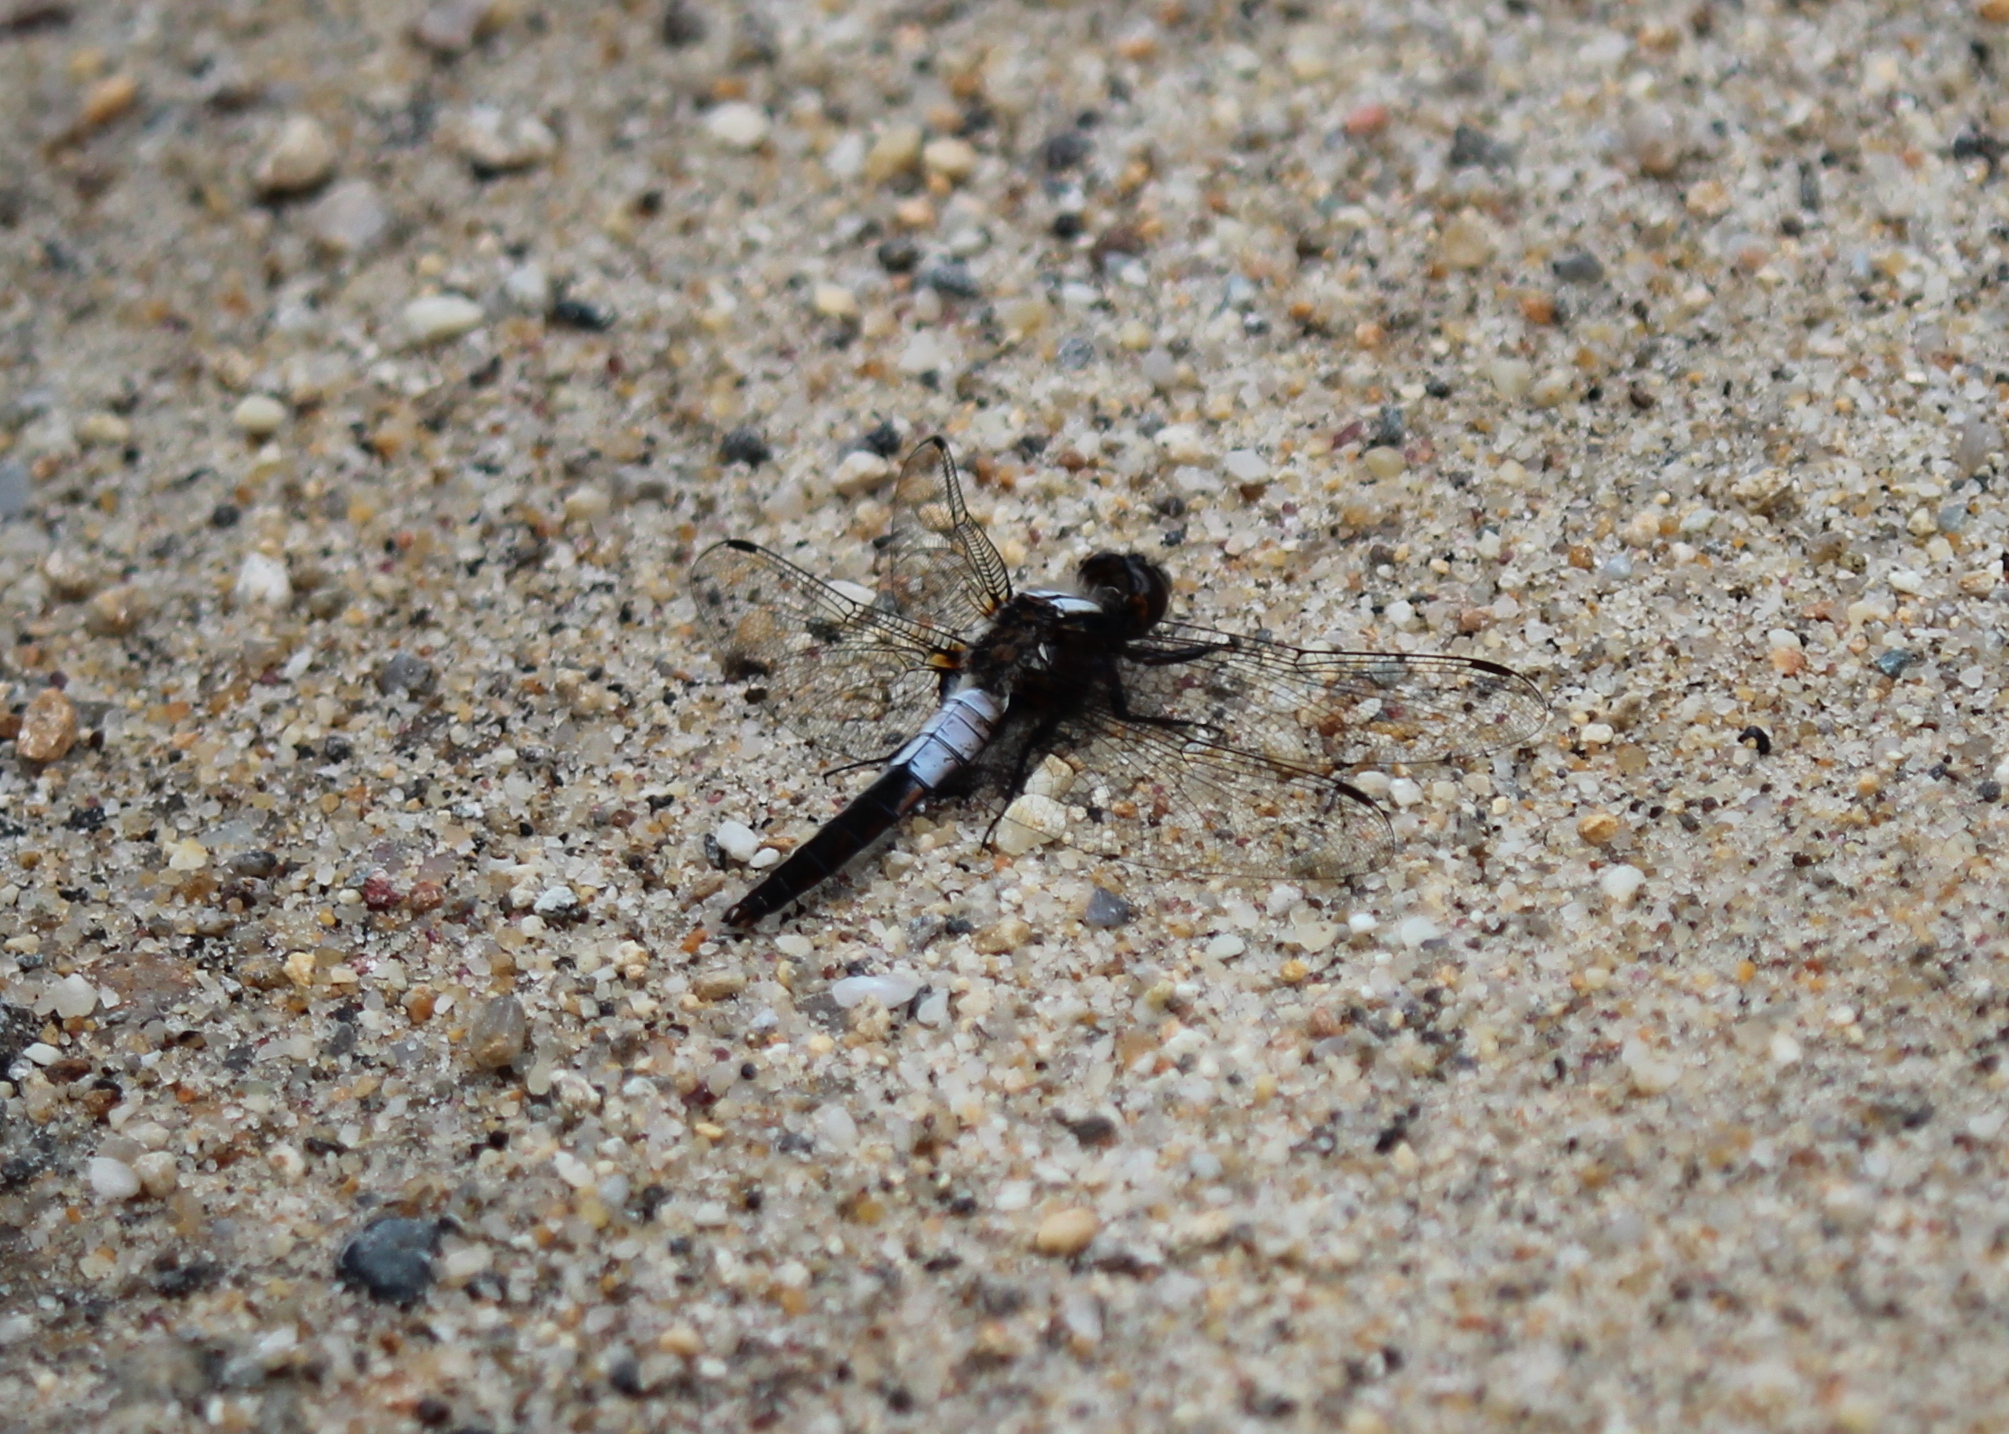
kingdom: Animalia
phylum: Arthropoda
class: Insecta
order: Odonata
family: Libellulidae
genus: Ladona
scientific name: Ladona julia
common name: Chalk-fronted corporal
